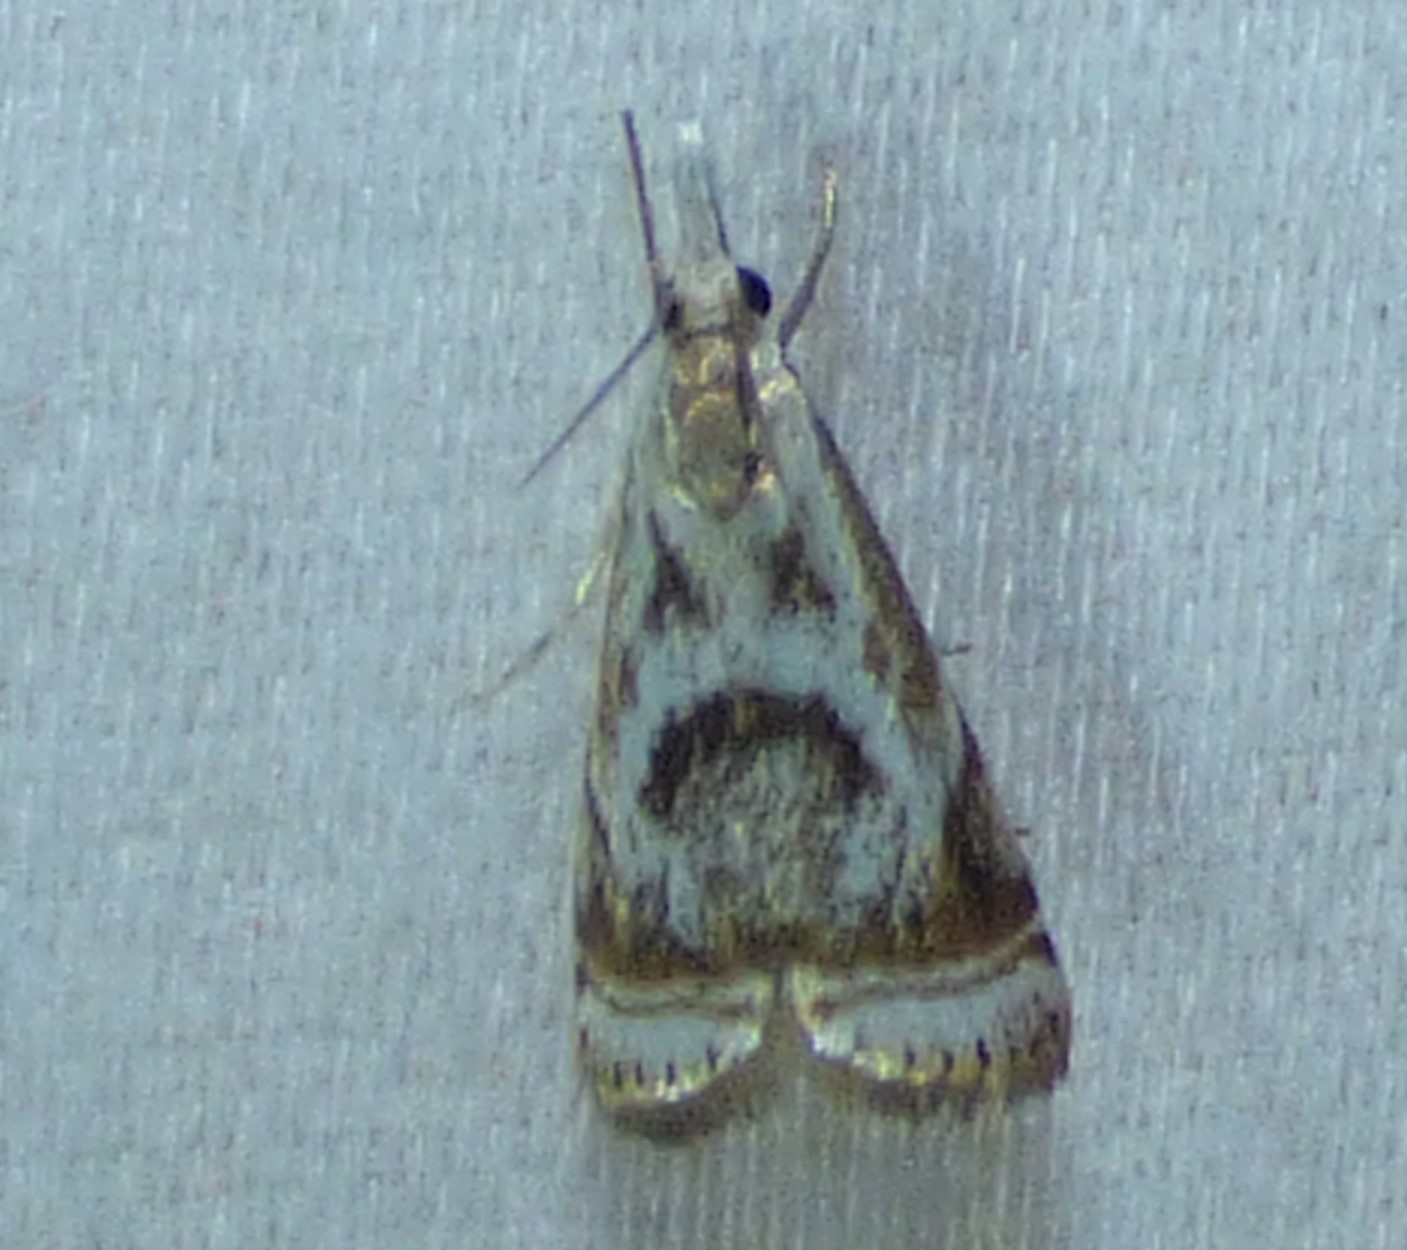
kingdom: Animalia
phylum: Arthropoda
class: Insecta
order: Lepidoptera
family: Crambidae
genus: Microcrambus
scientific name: Microcrambus elegans
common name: Elegant grass-veneer
